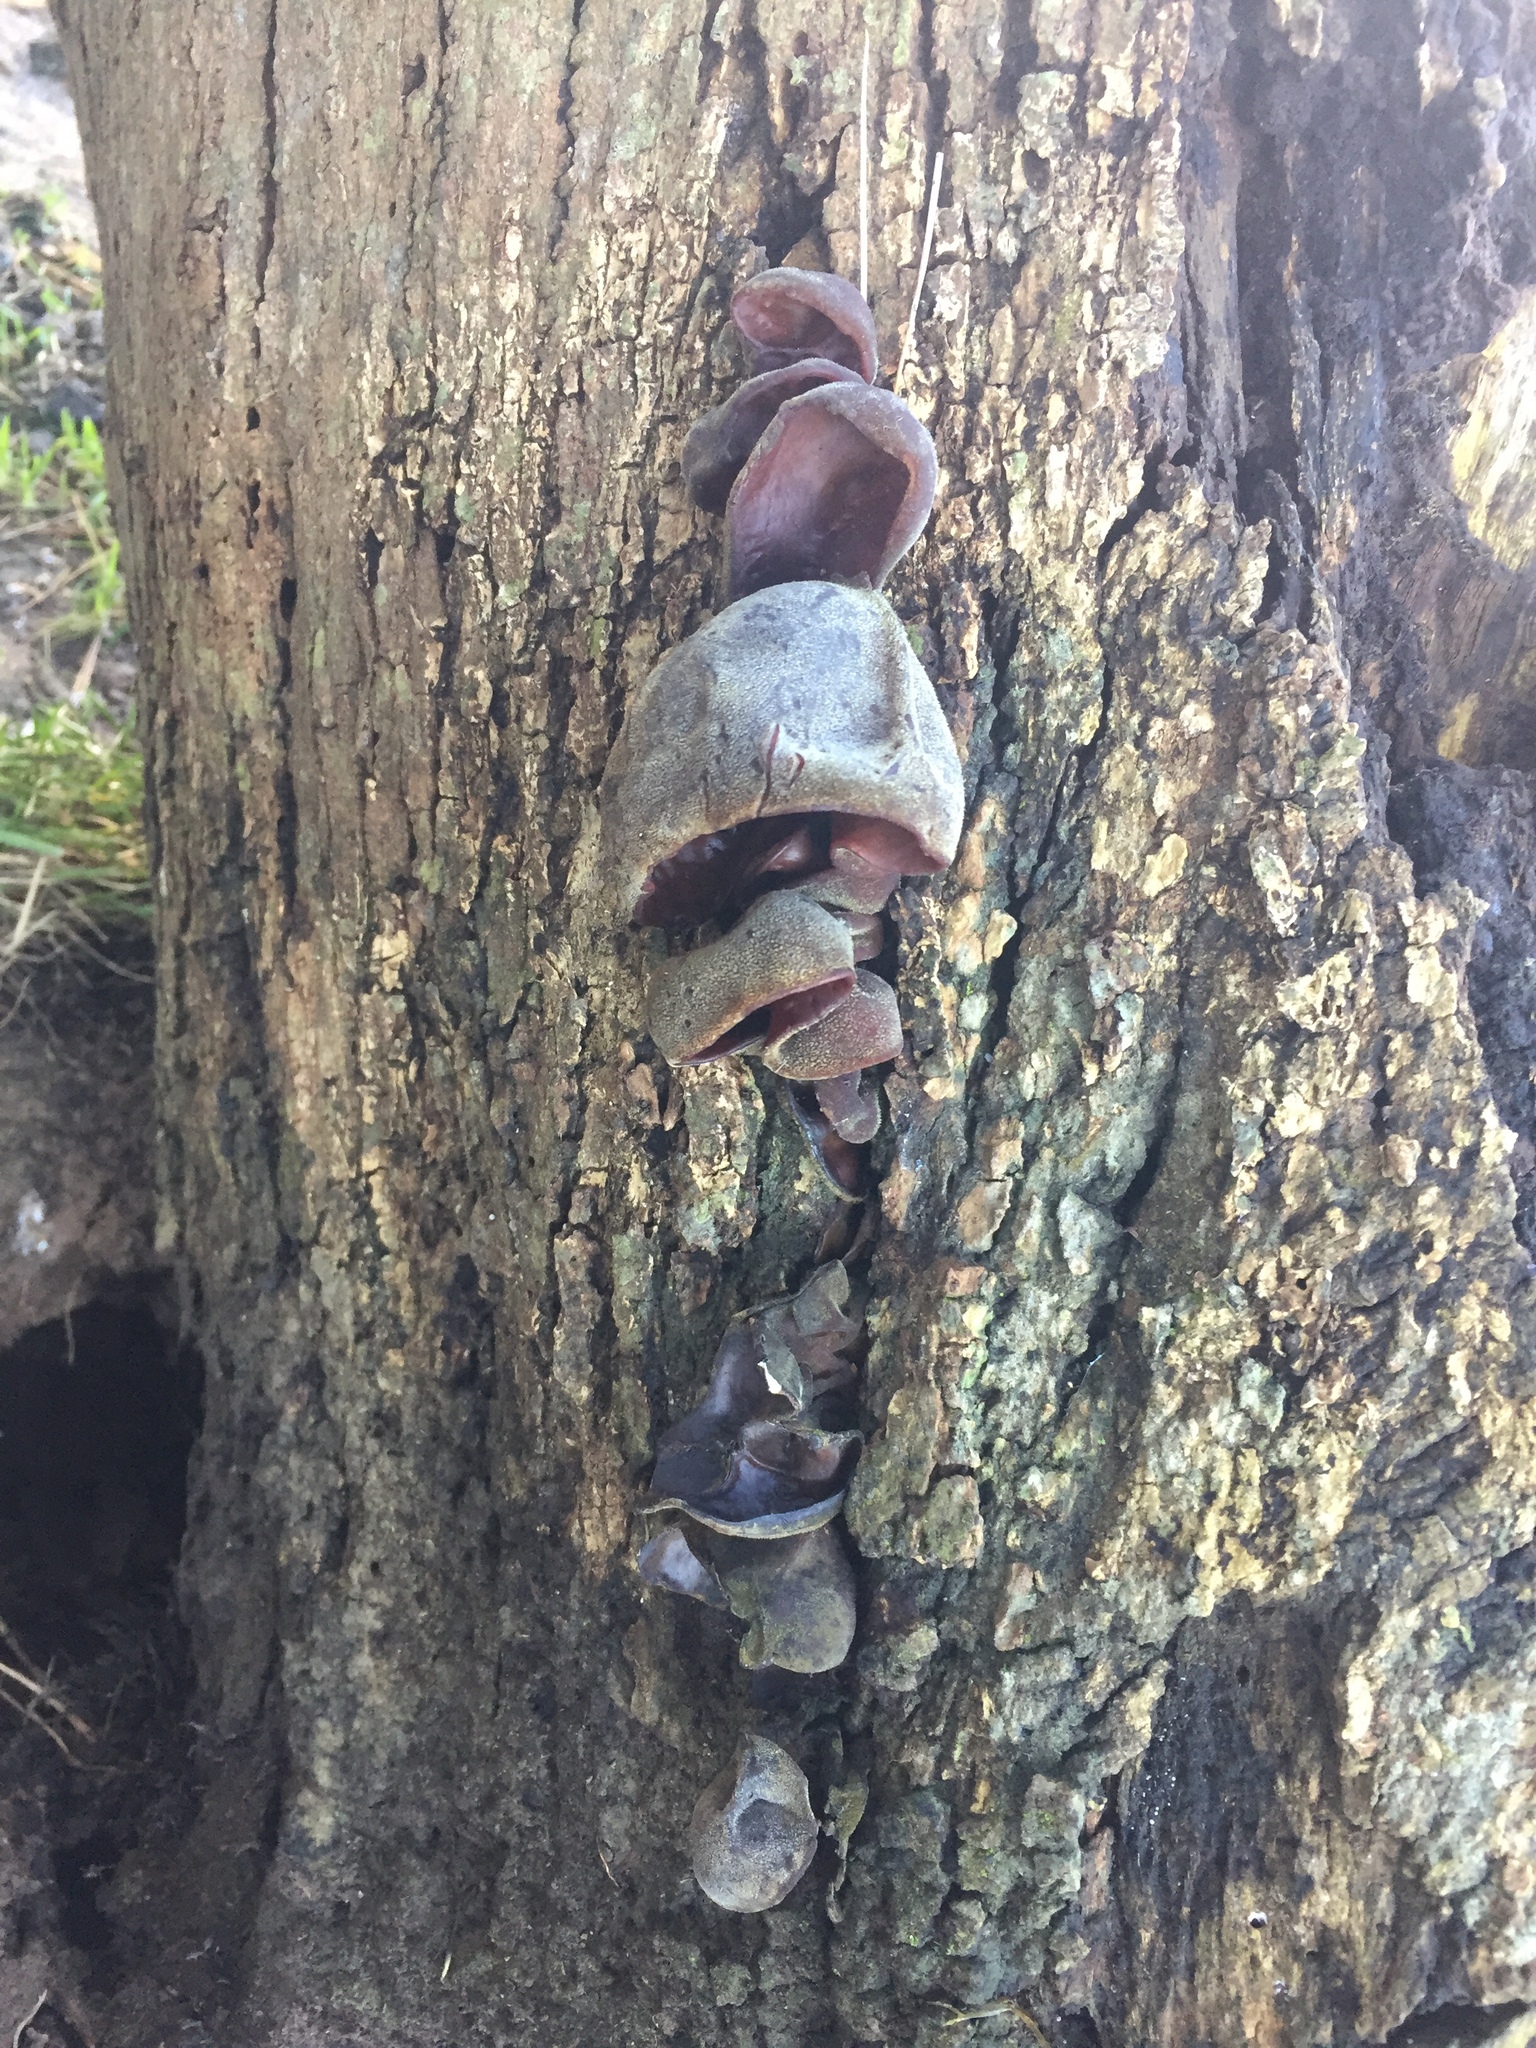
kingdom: Fungi
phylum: Basidiomycota
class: Agaricomycetes
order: Auriculariales
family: Auriculariaceae
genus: Auricularia
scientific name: Auricularia cornea
